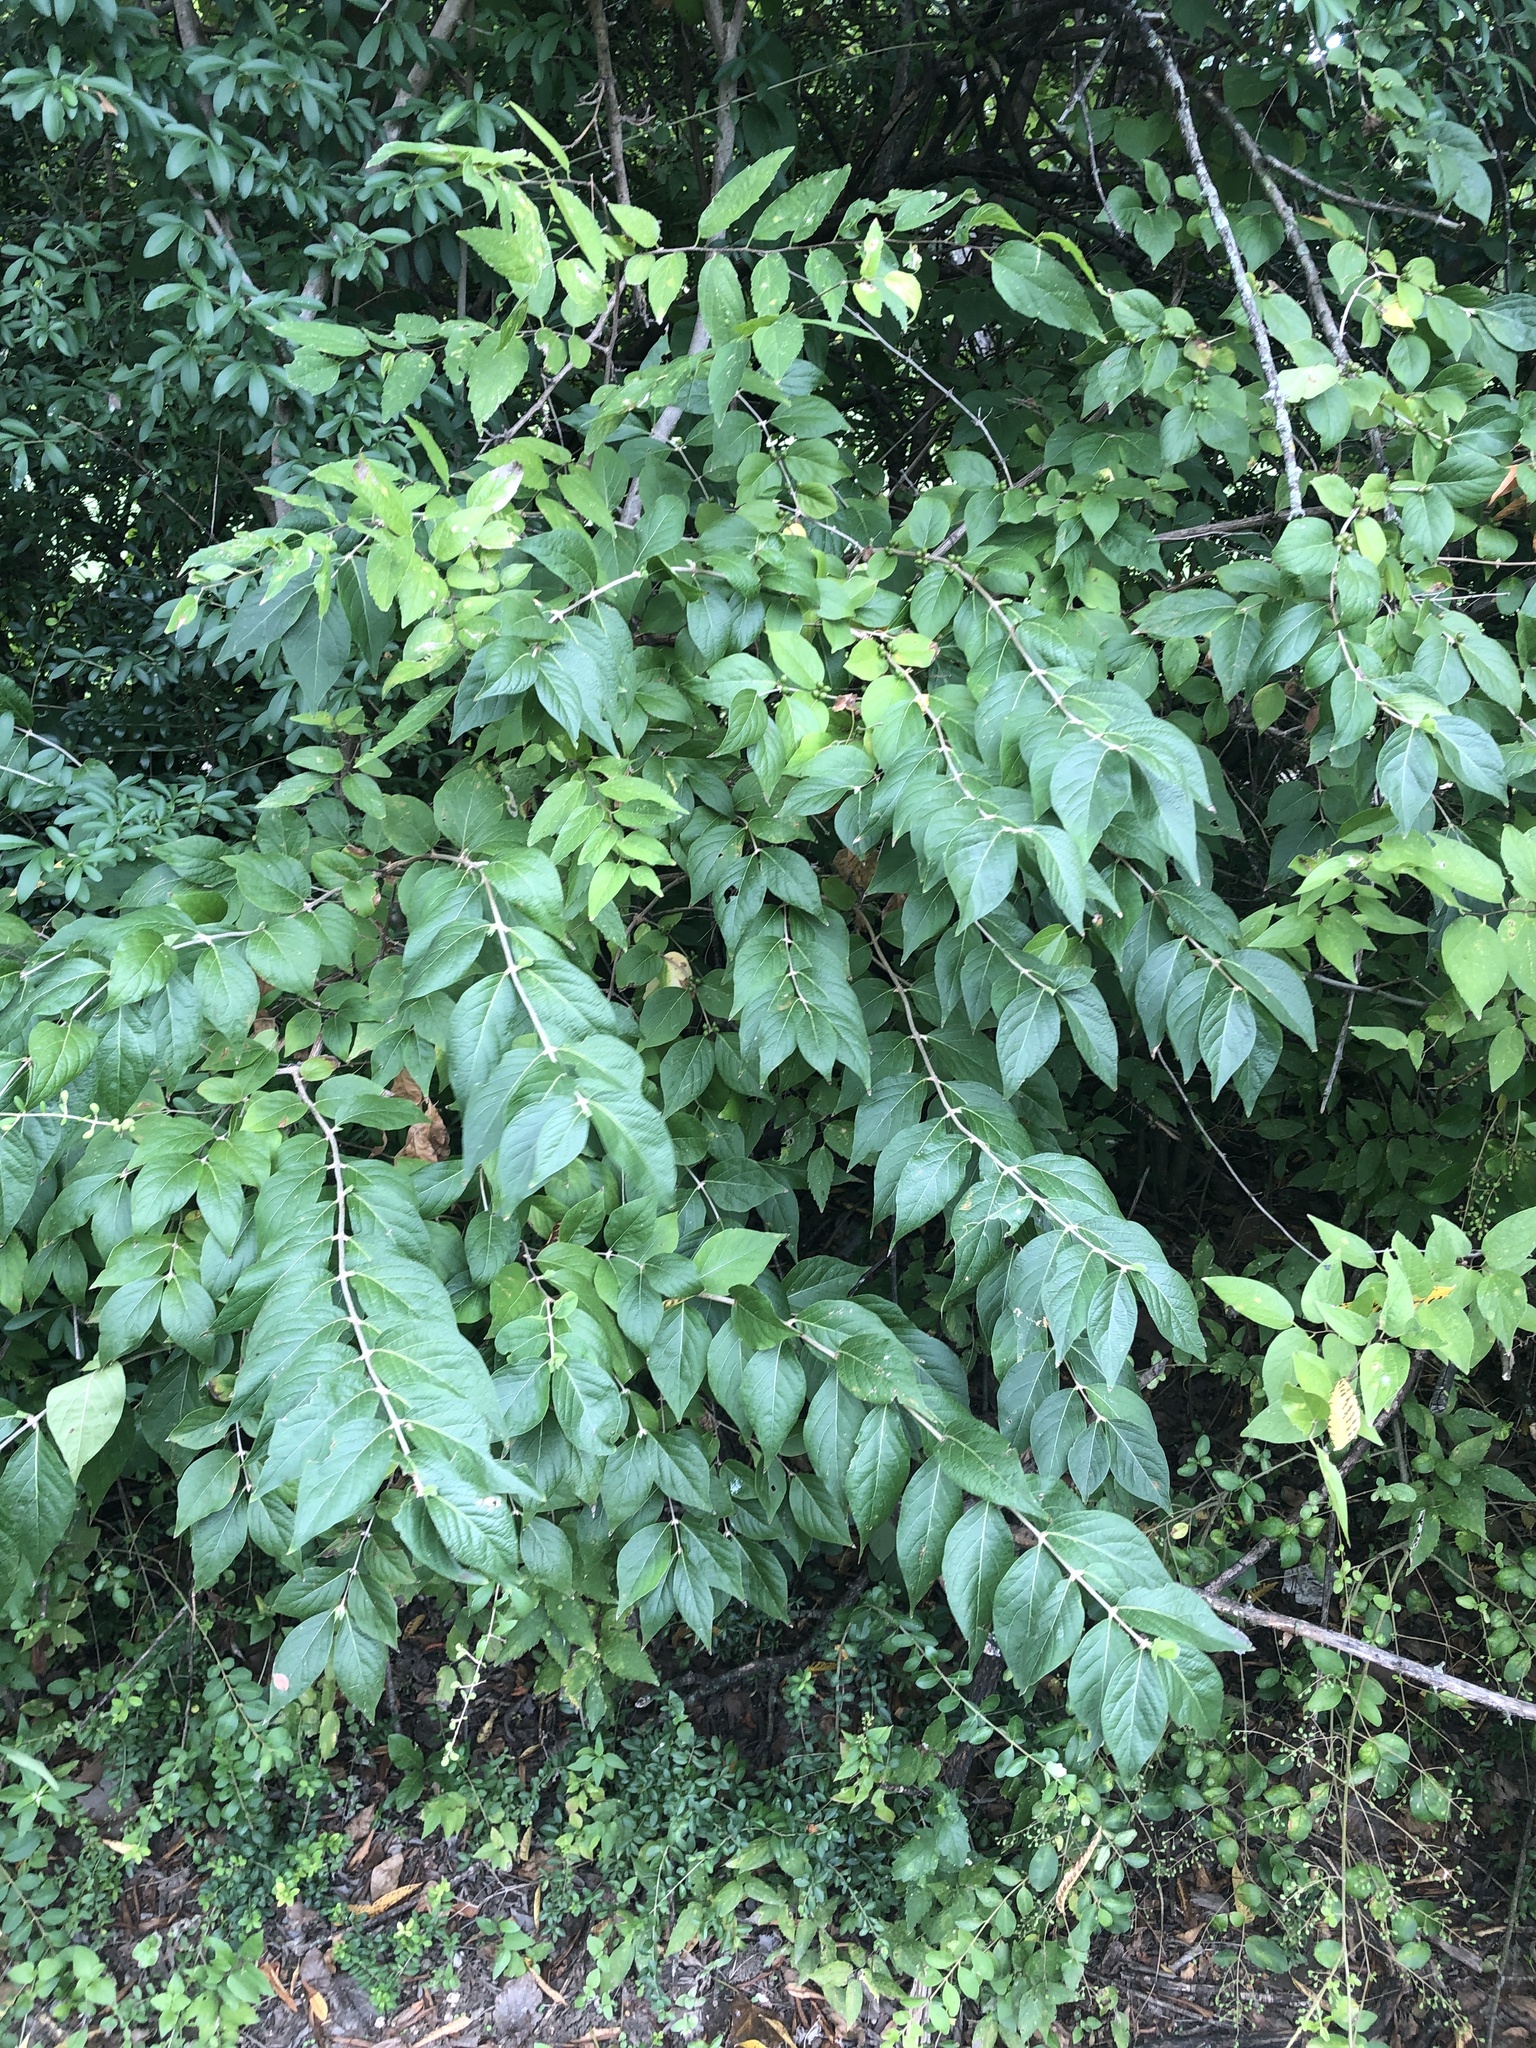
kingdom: Plantae
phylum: Tracheophyta
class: Magnoliopsida
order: Dipsacales
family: Caprifoliaceae
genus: Lonicera
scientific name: Lonicera maackii
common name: Amur honeysuckle
